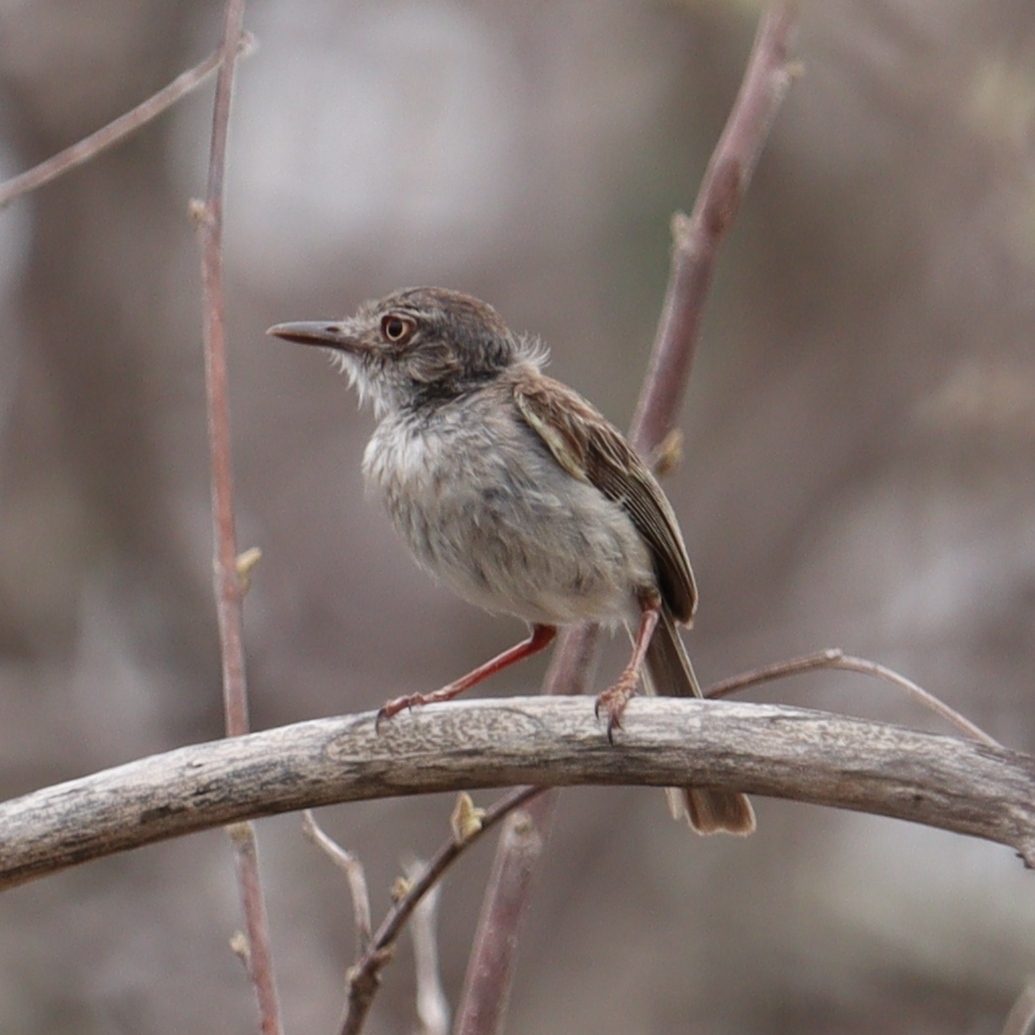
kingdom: Animalia
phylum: Chordata
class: Aves
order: Passeriformes
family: Tyrannidae
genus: Hemitriccus
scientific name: Hemitriccus margaritaceiventer
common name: Pearly-vented tody-tyrant
